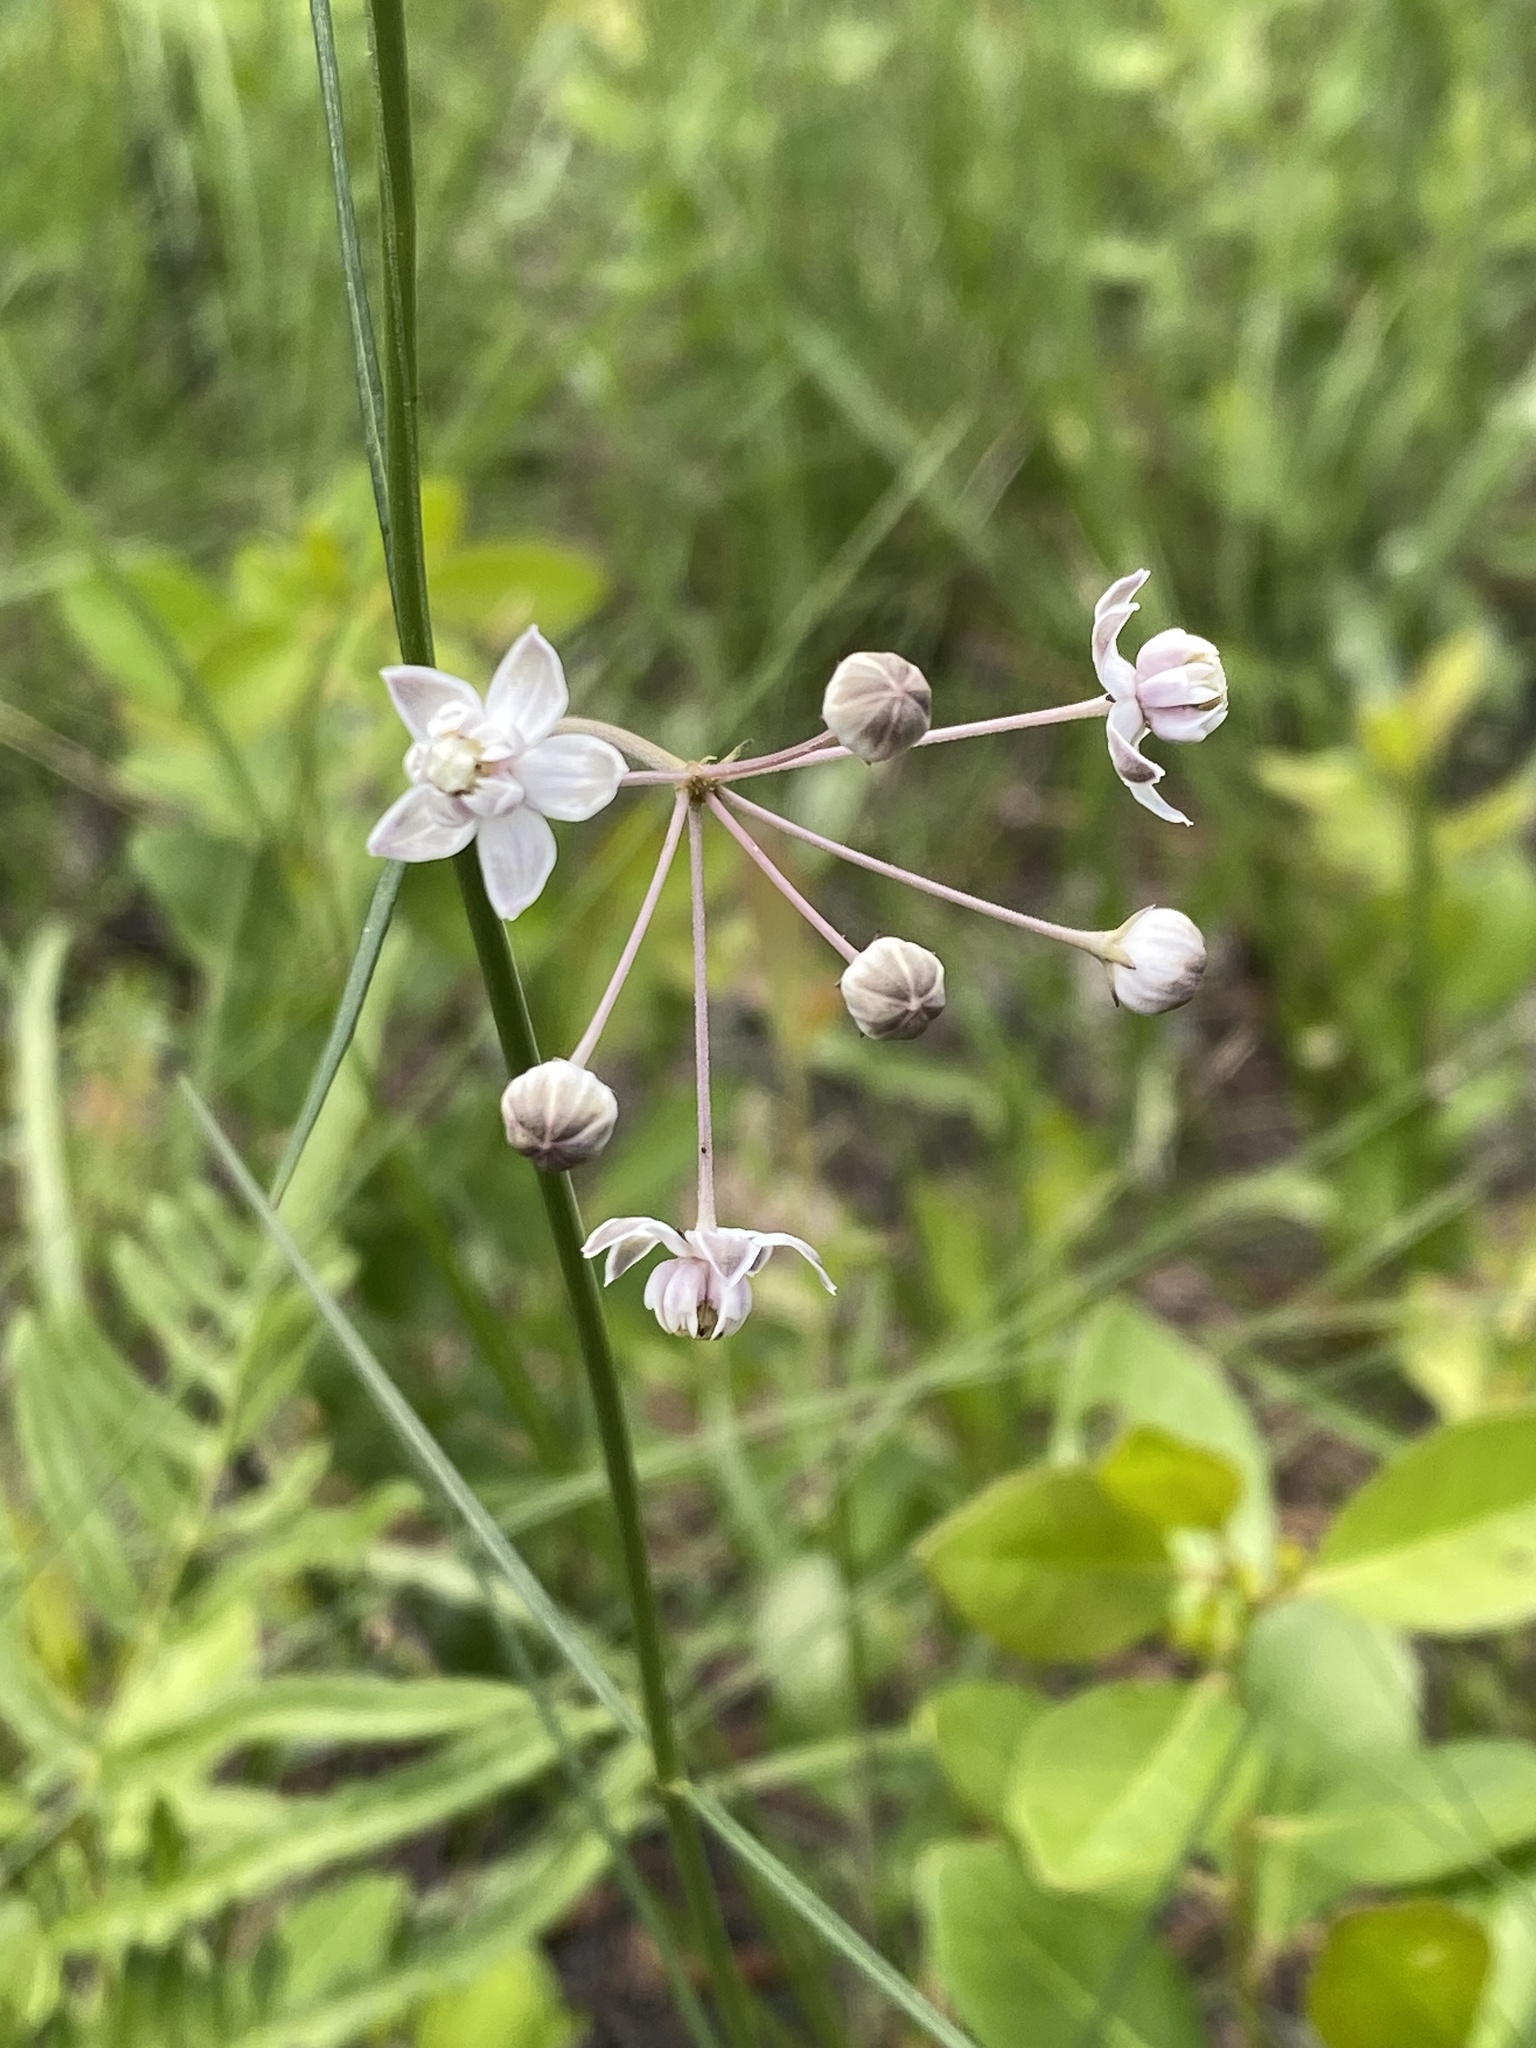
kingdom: Plantae
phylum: Tracheophyta
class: Magnoliopsida
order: Gentianales
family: Apocynaceae
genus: Asclepias
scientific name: Asclepias cinerea
